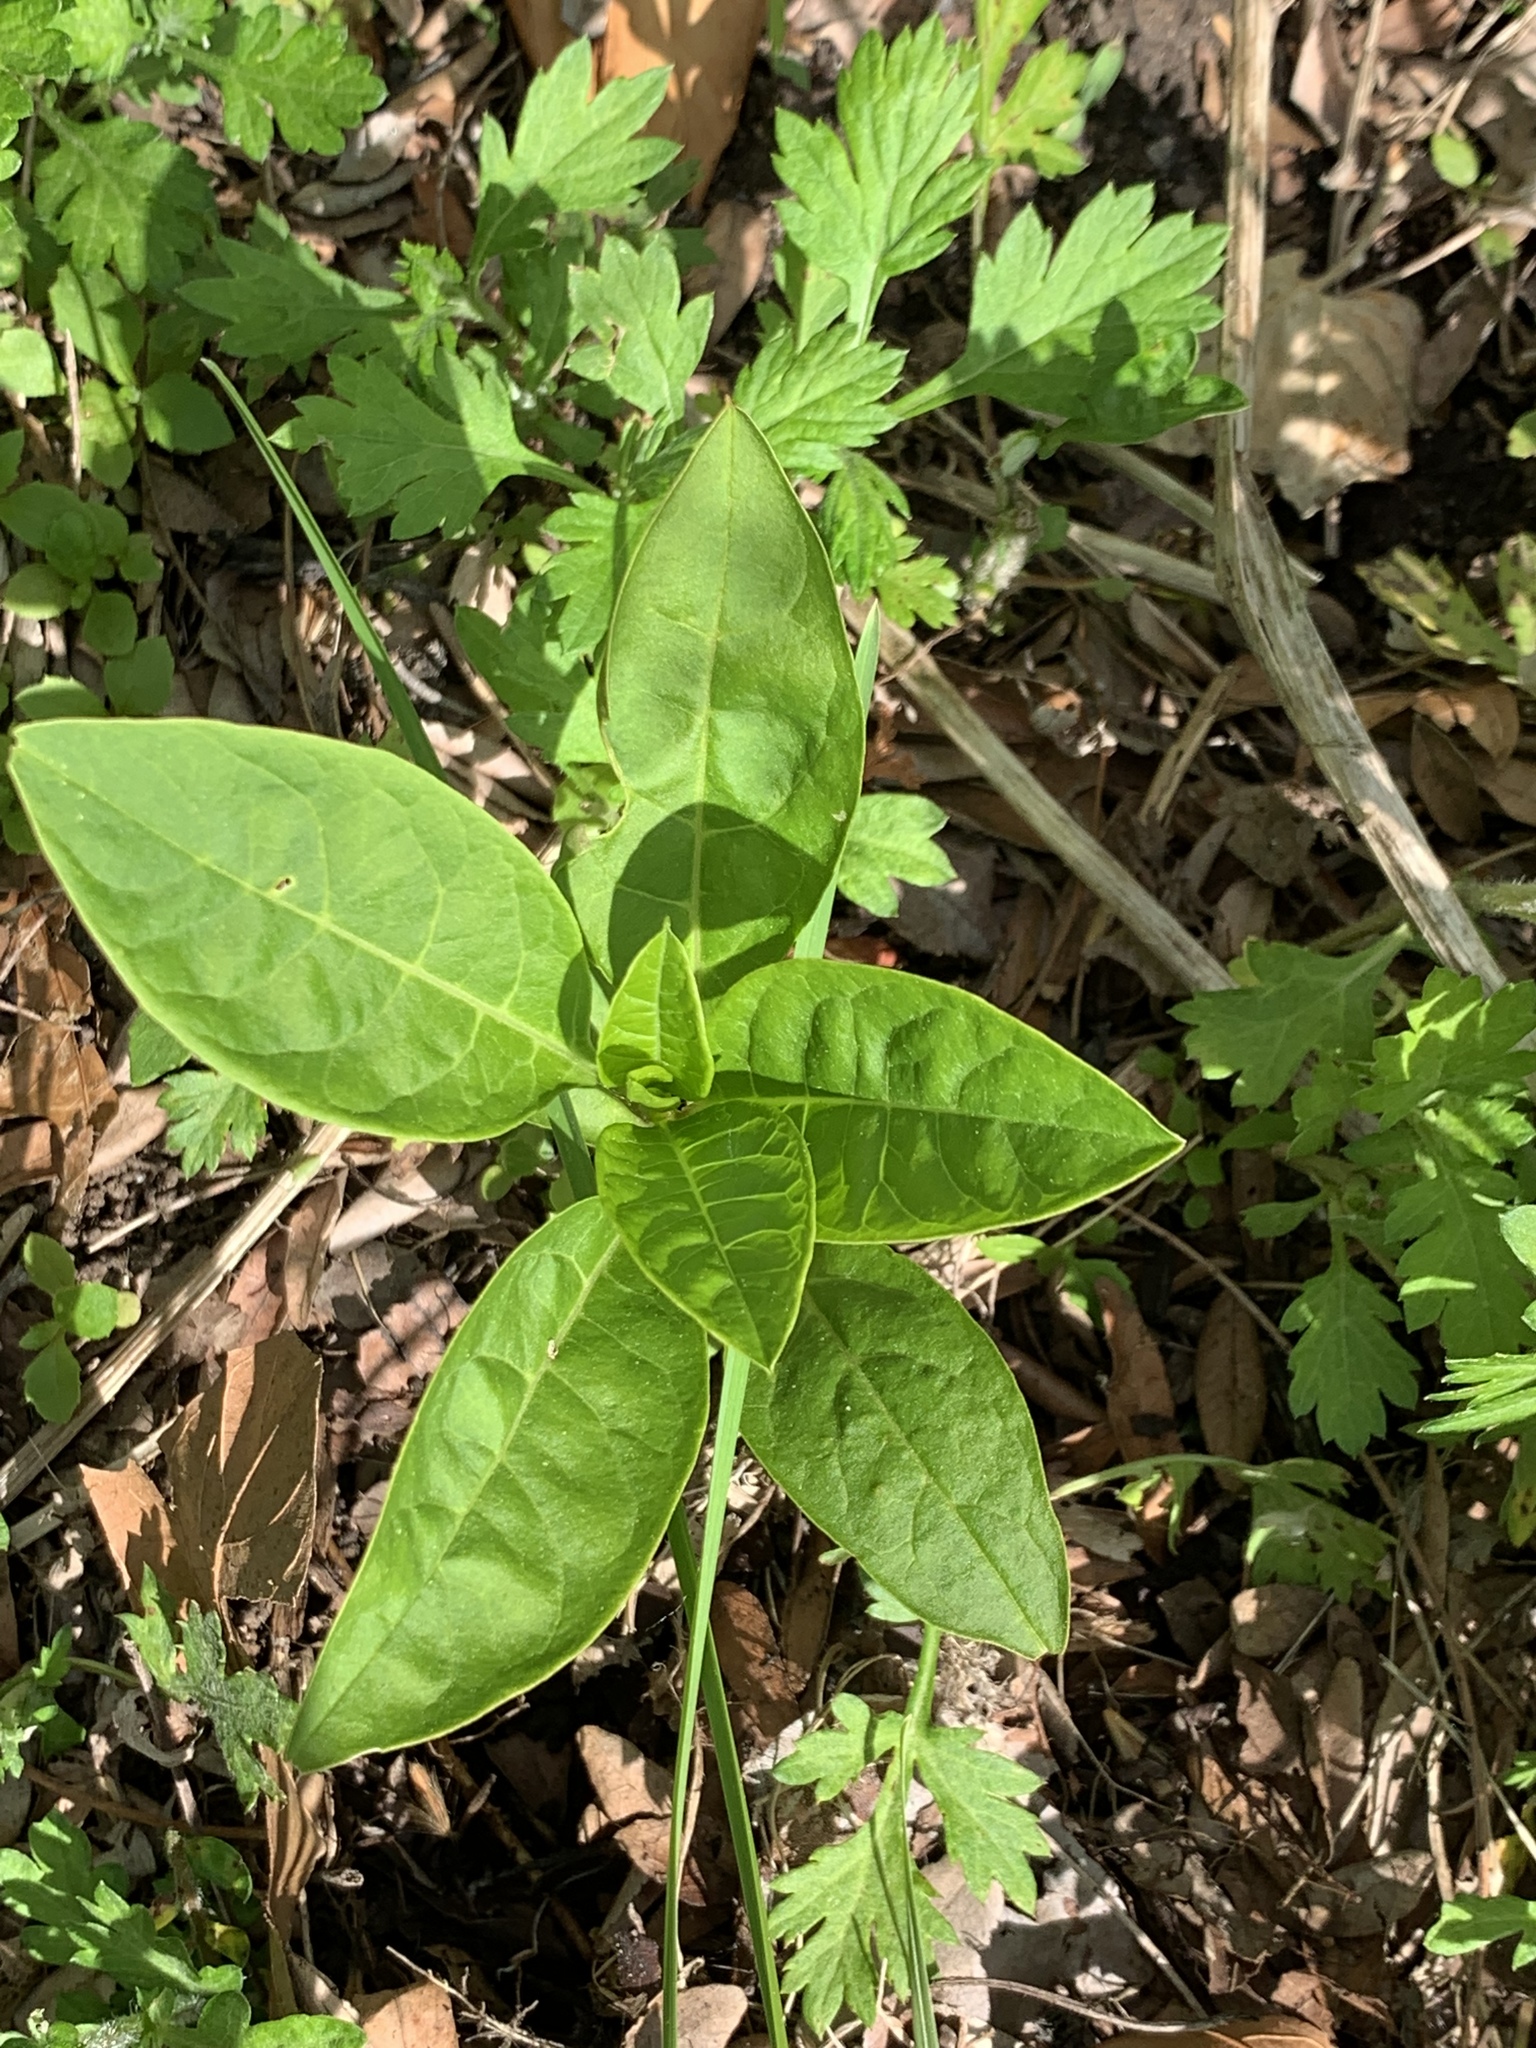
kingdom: Plantae
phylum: Tracheophyta
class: Magnoliopsida
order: Caryophyllales
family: Phytolaccaceae
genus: Phytolacca
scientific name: Phytolacca americana
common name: American pokeweed
